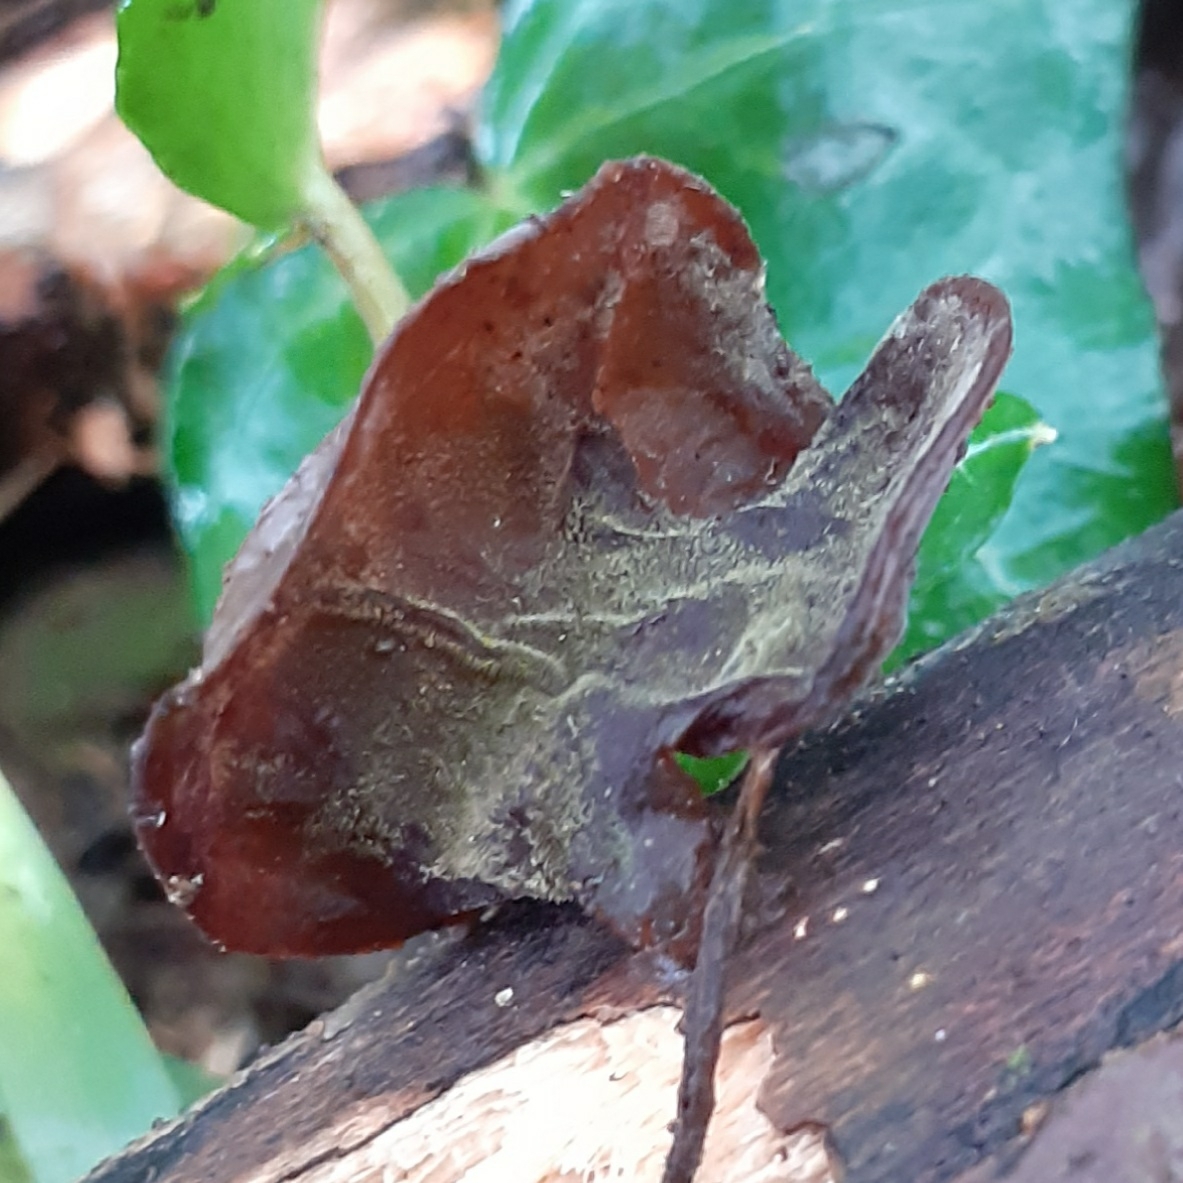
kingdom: Fungi
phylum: Basidiomycota
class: Agaricomycetes
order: Auriculariales
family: Auriculariaceae
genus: Auricularia
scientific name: Auricularia auricula-judae
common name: Jelly ear
